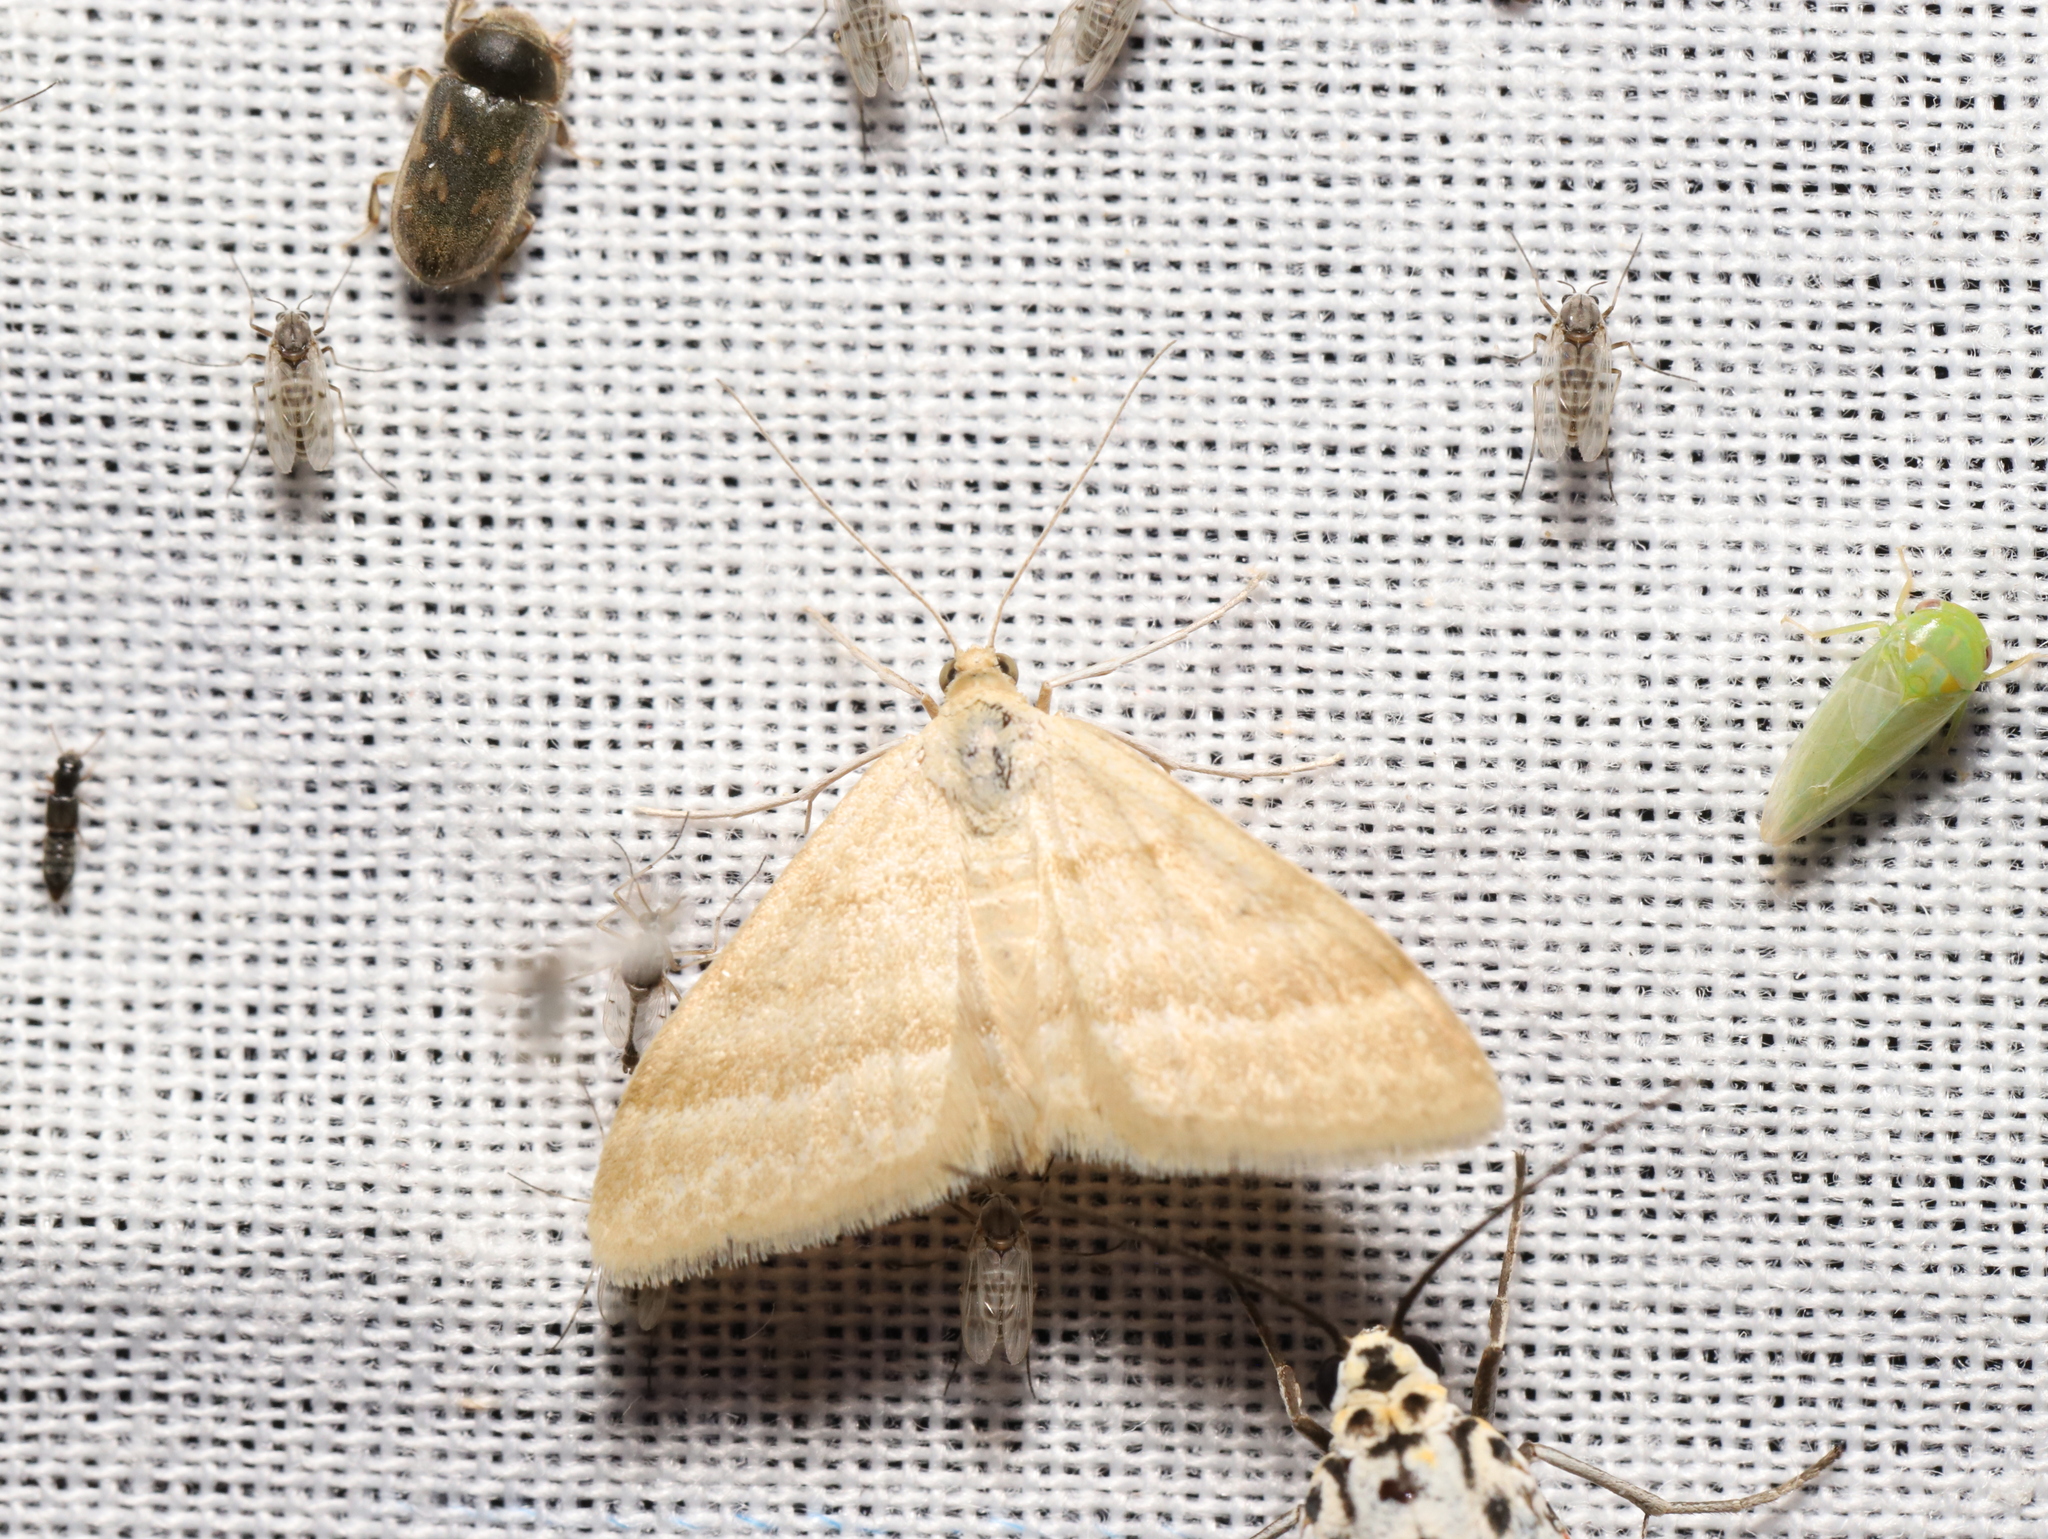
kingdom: Animalia
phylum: Arthropoda
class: Insecta
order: Lepidoptera
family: Geometridae
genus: Scopula
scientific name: Scopula lydia
